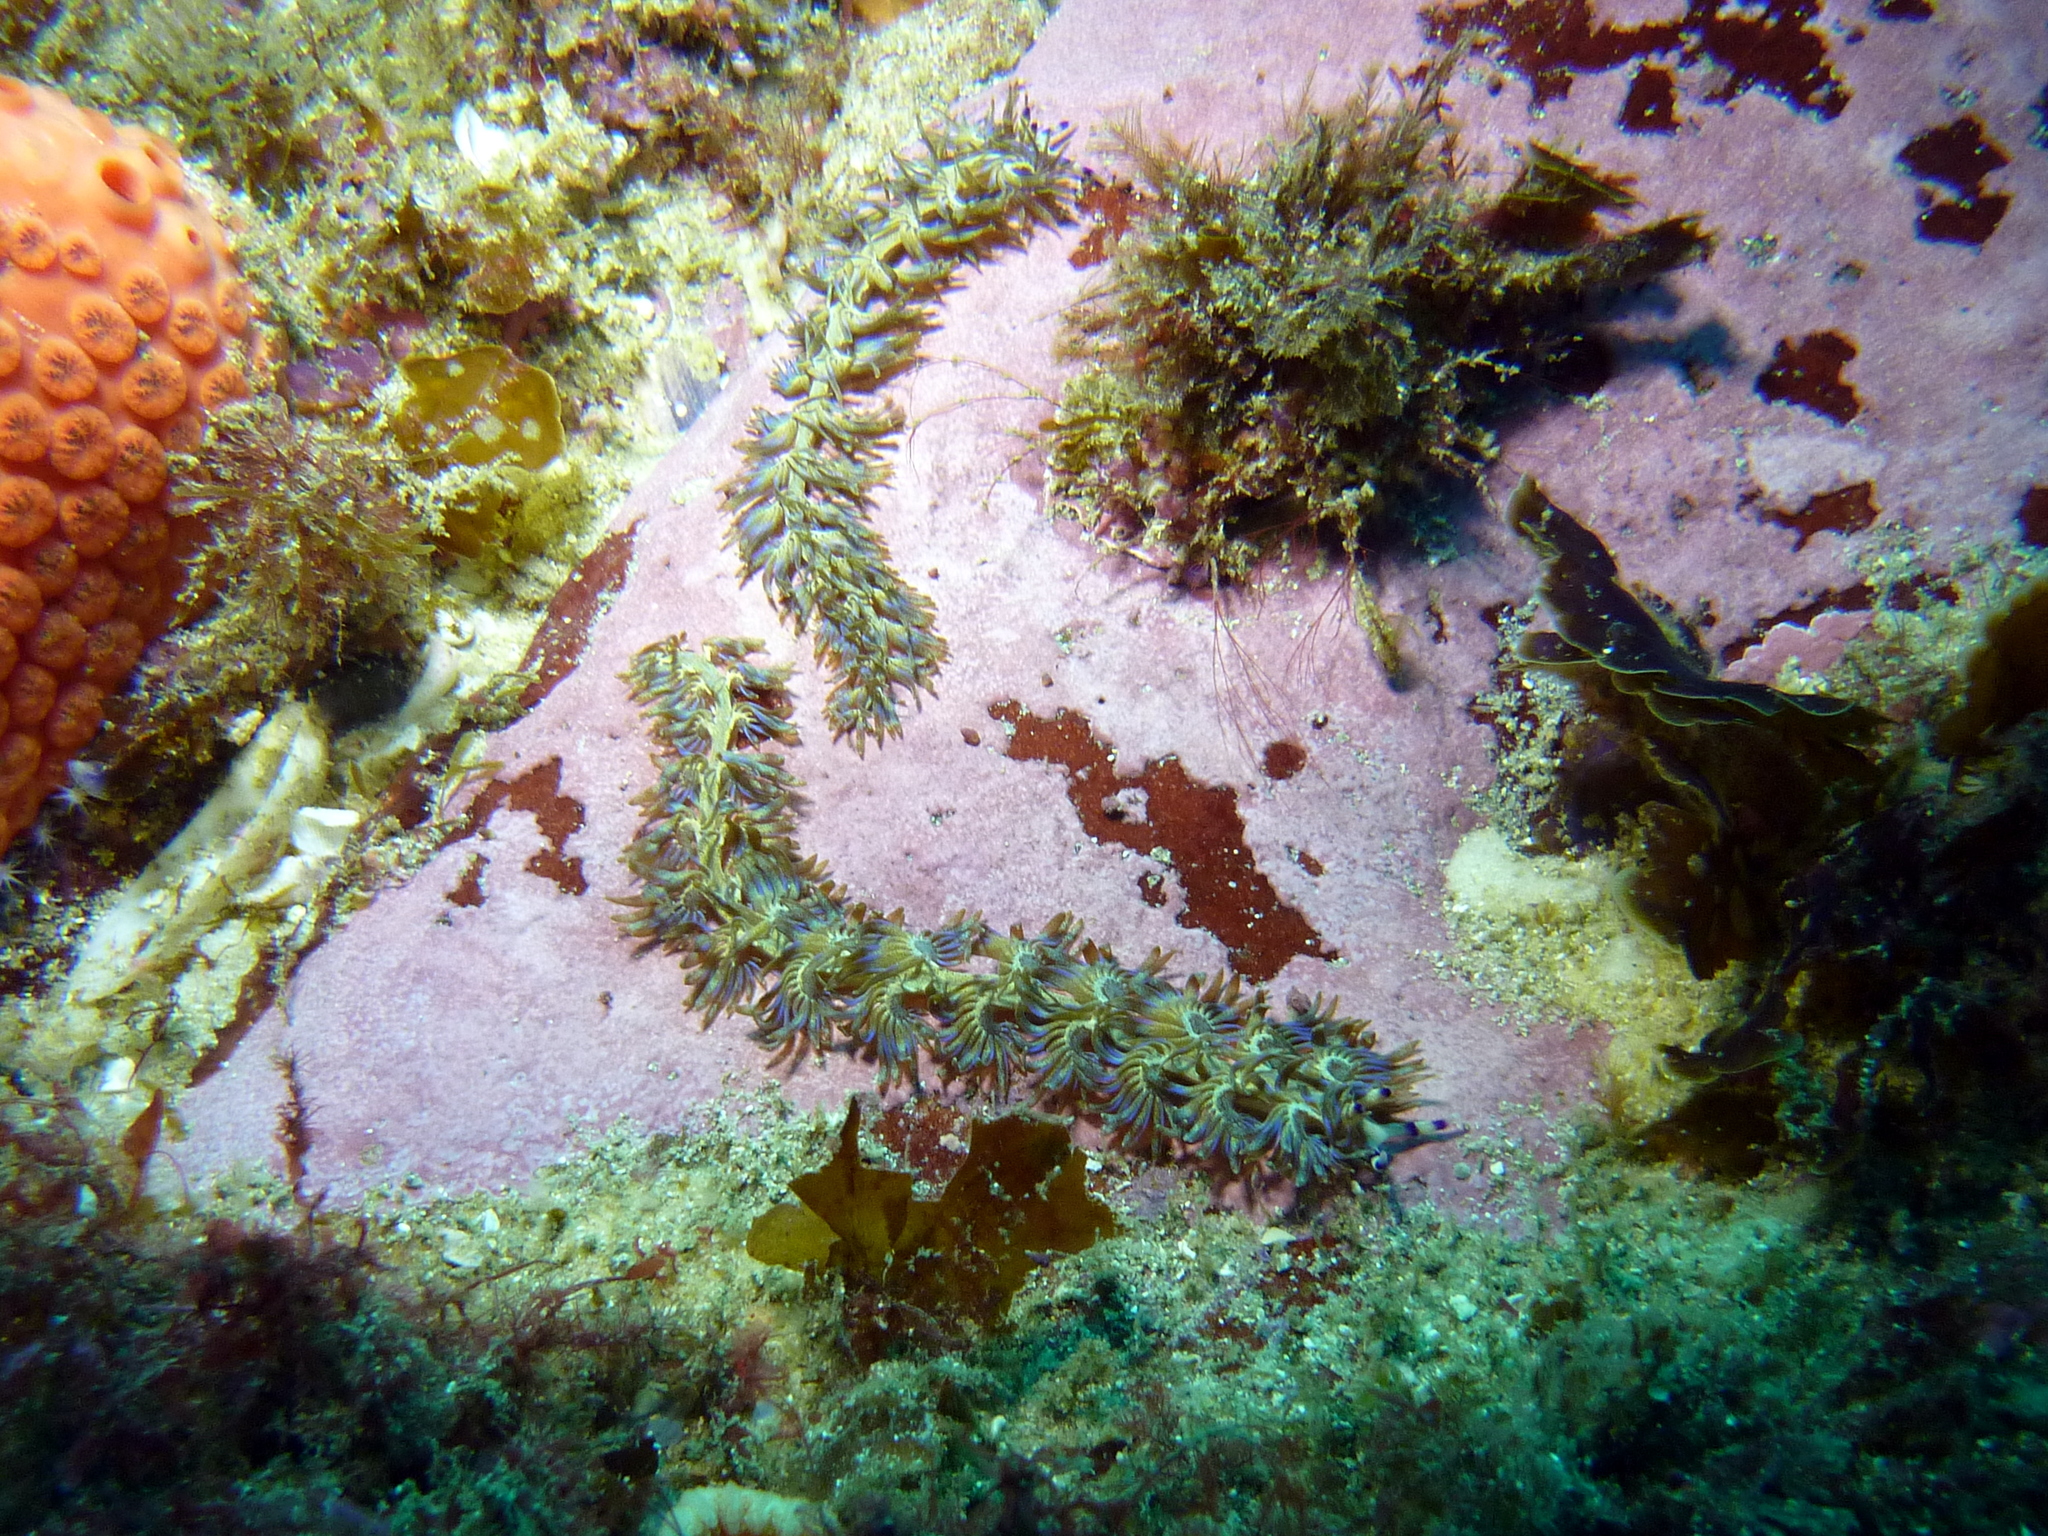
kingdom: Animalia
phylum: Mollusca
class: Gastropoda
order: Nudibranchia
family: Facelinidae
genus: Pteraeolidia
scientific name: Pteraeolidia ianthina
